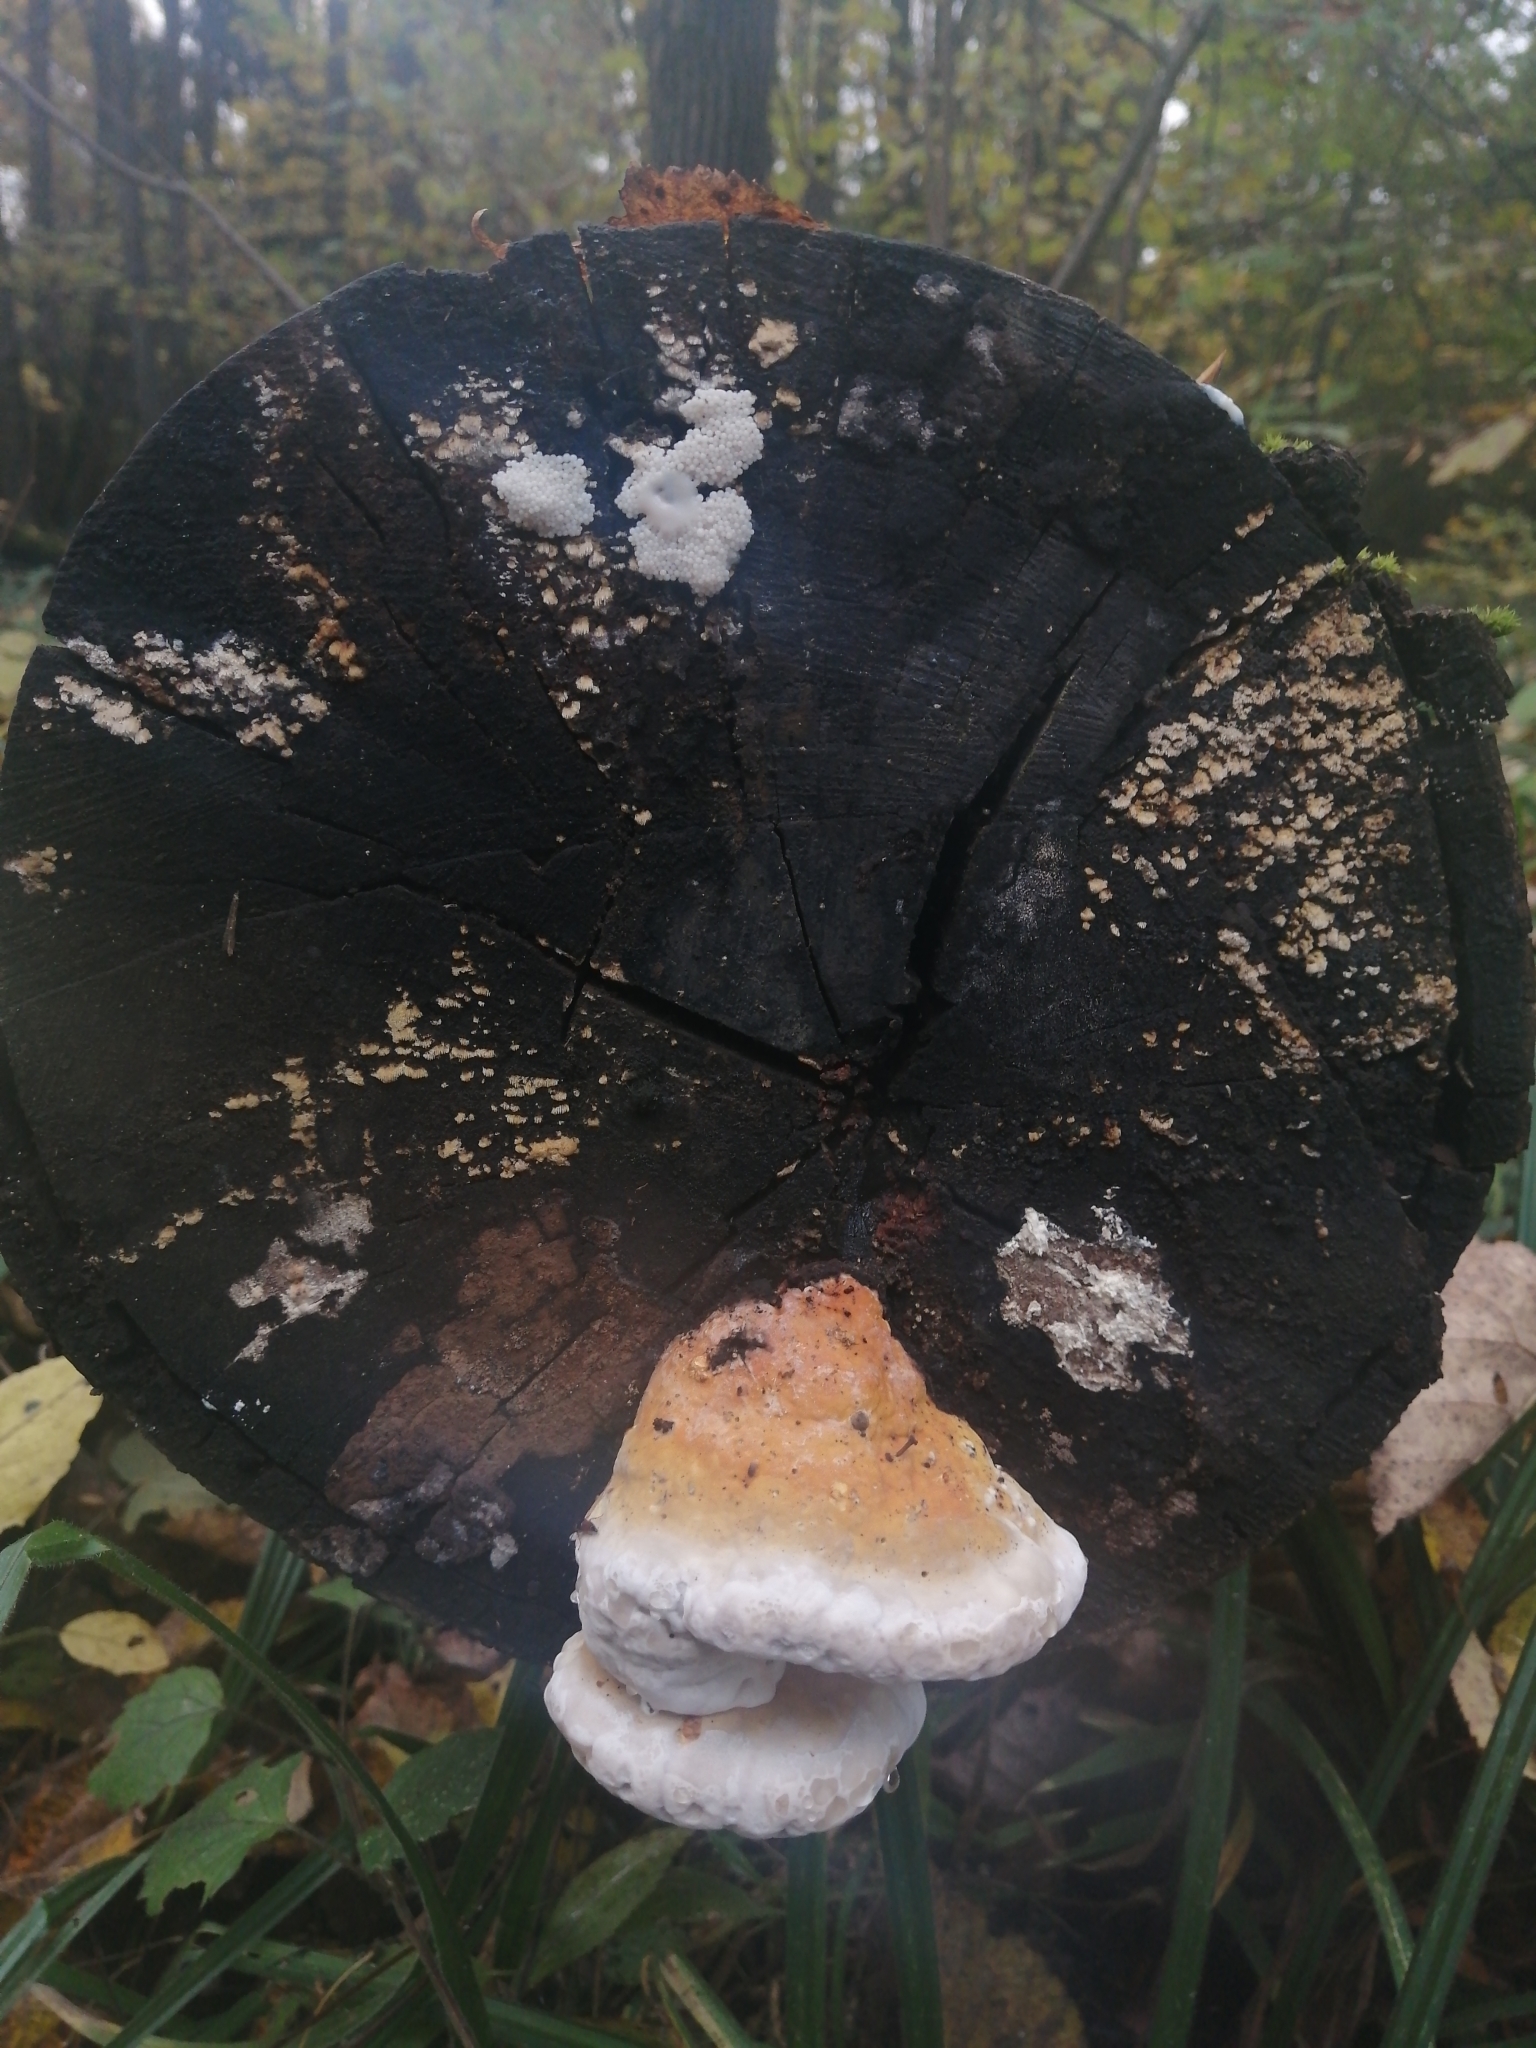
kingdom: Fungi
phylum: Basidiomycota
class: Agaricomycetes
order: Polyporales
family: Fomitopsidaceae
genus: Fomitopsis
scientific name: Fomitopsis pinicola
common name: Red-belted bracket
